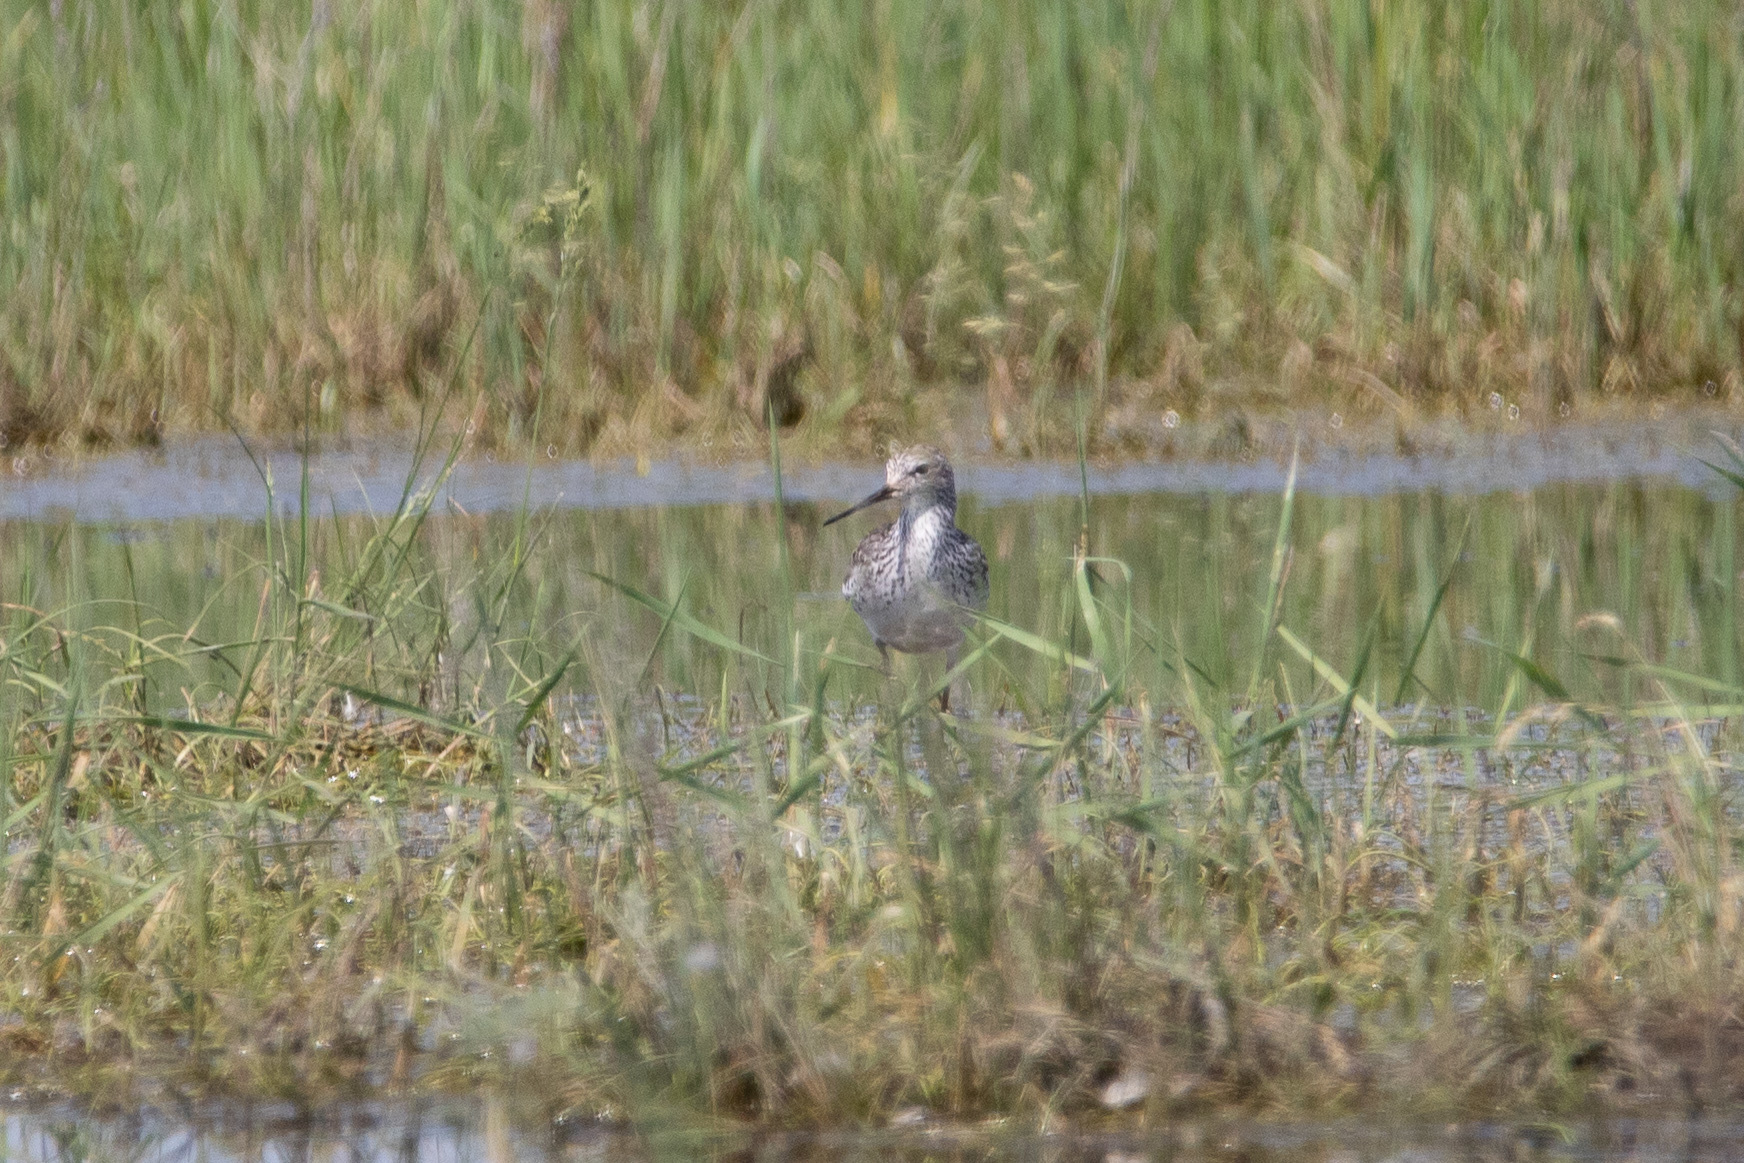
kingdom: Animalia
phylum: Chordata
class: Aves
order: Charadriiformes
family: Scolopacidae
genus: Tringa
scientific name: Tringa stagnatilis
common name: Marsh sandpiper
